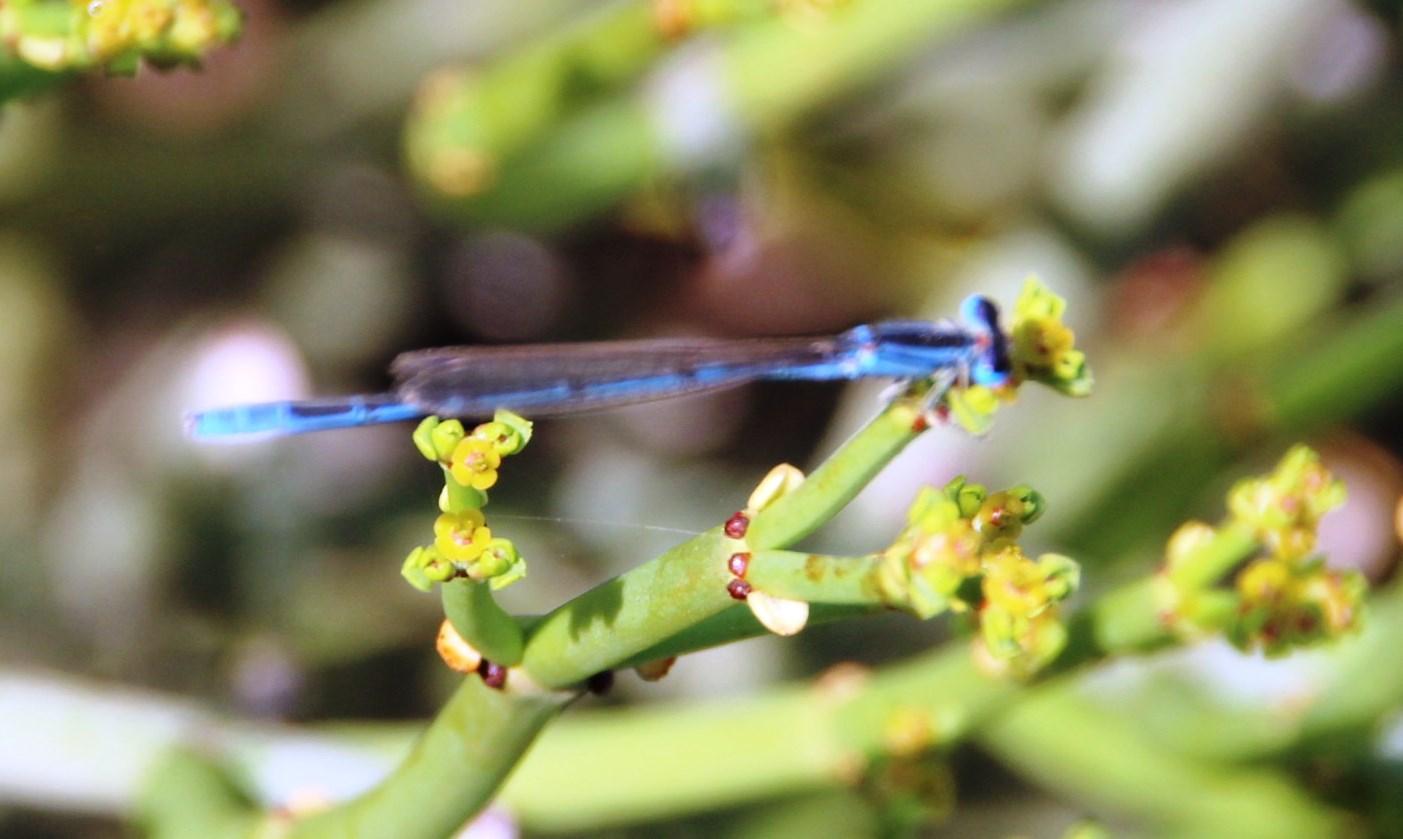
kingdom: Animalia
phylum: Arthropoda
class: Insecta
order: Odonata
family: Coenagrionidae
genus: Africallagma
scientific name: Africallagma glaucum
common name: Swamp bluet
